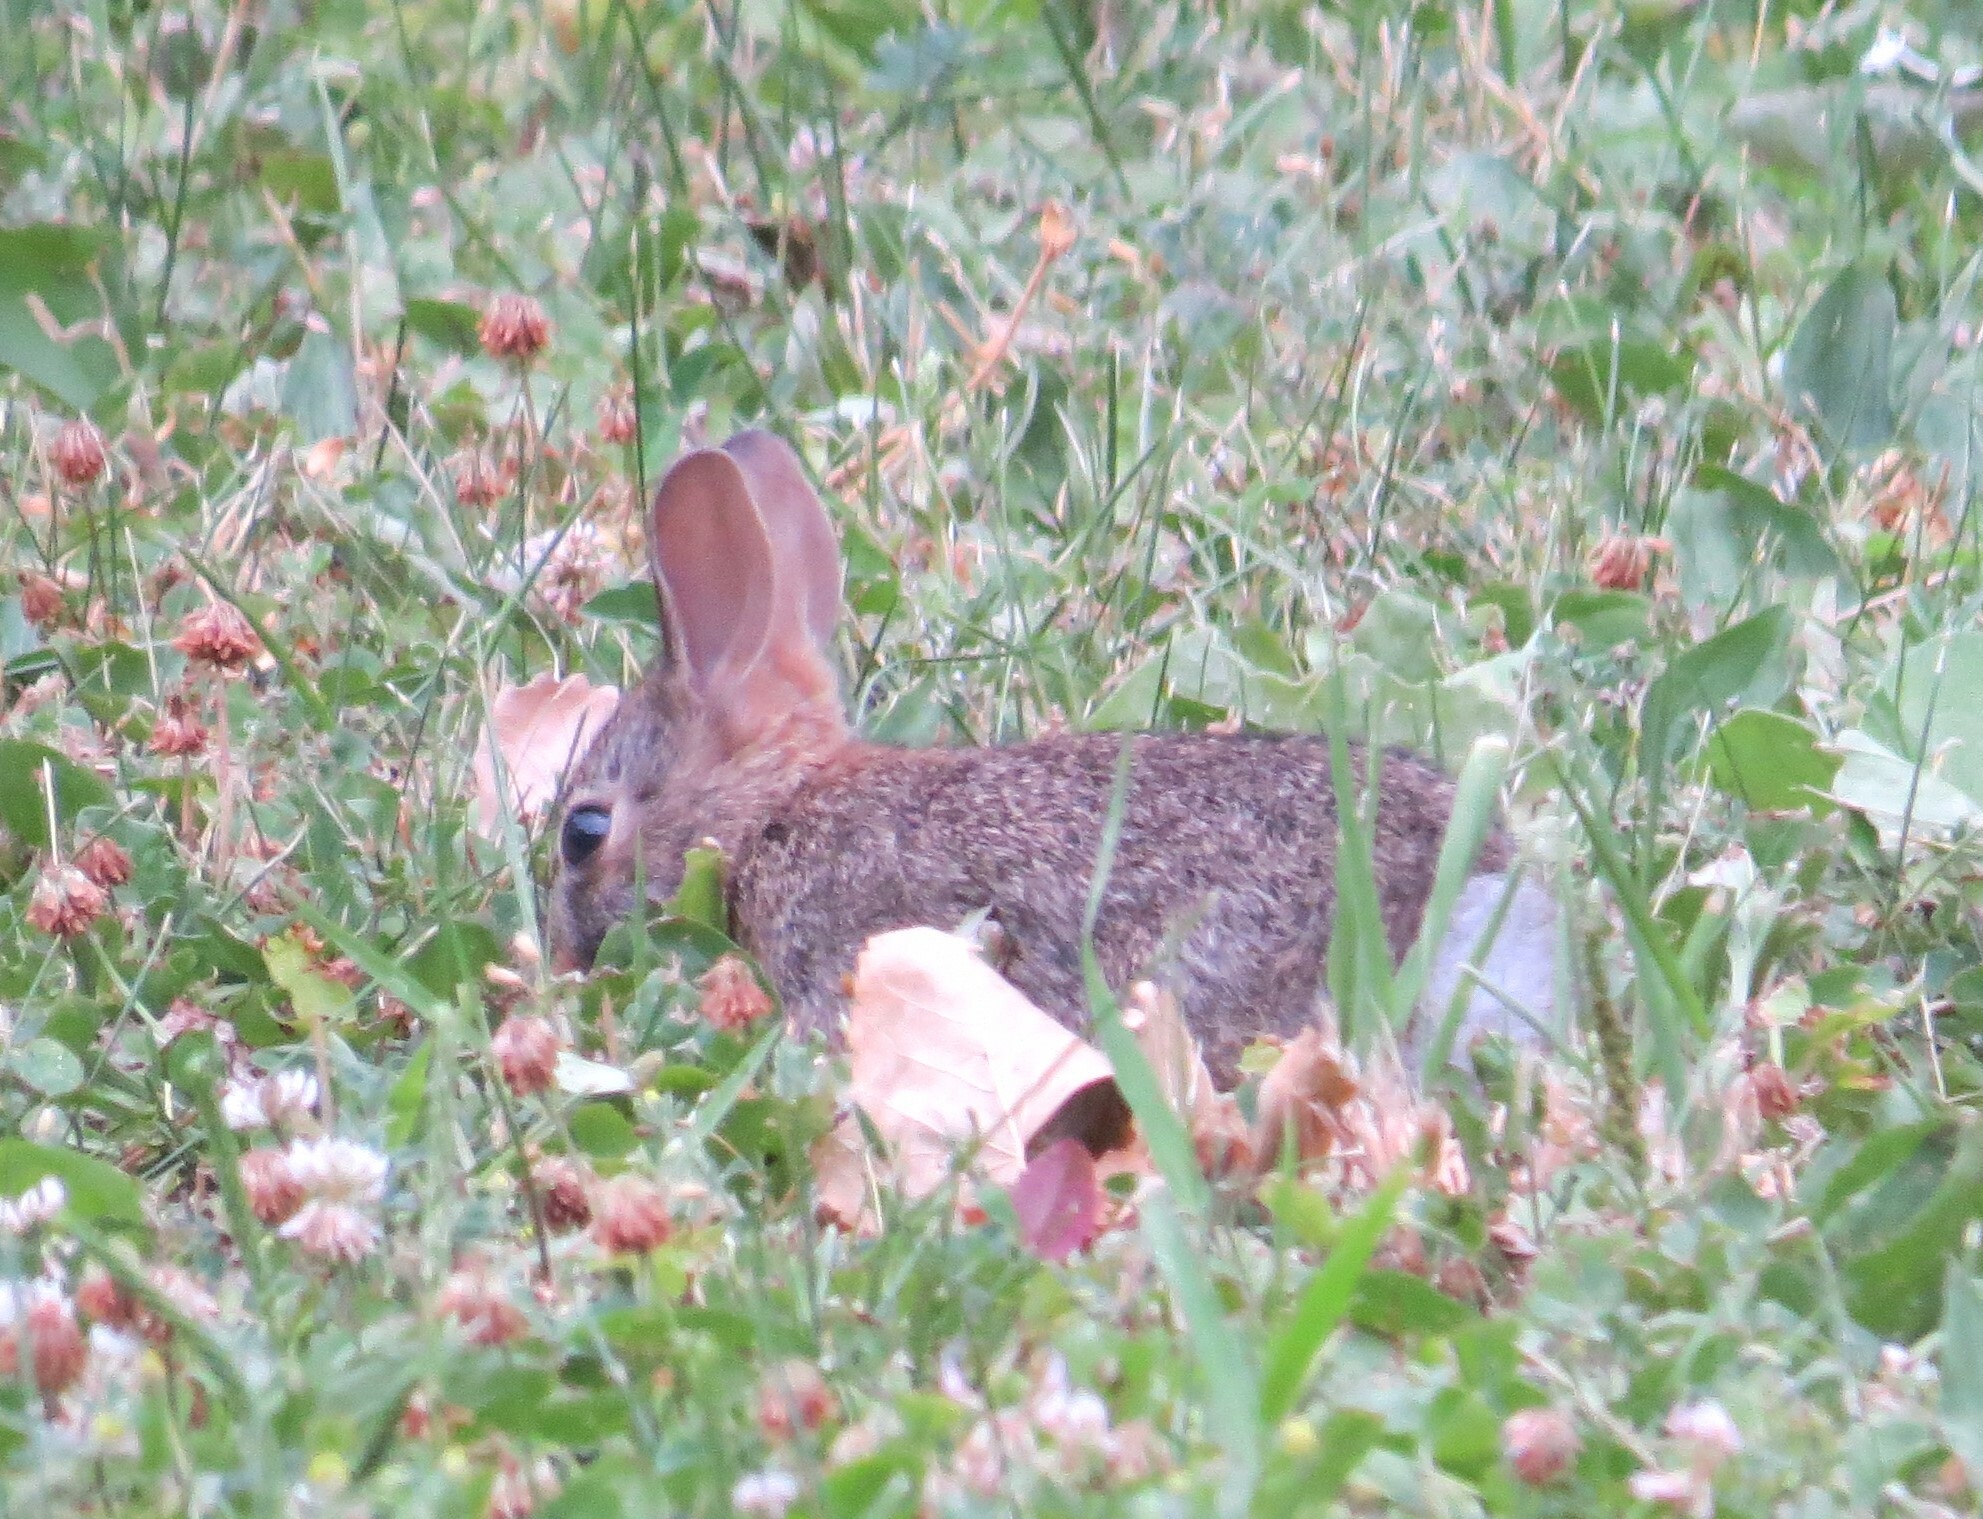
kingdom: Animalia
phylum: Chordata
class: Mammalia
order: Lagomorpha
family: Leporidae
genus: Sylvilagus
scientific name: Sylvilagus floridanus
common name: Eastern cottontail
